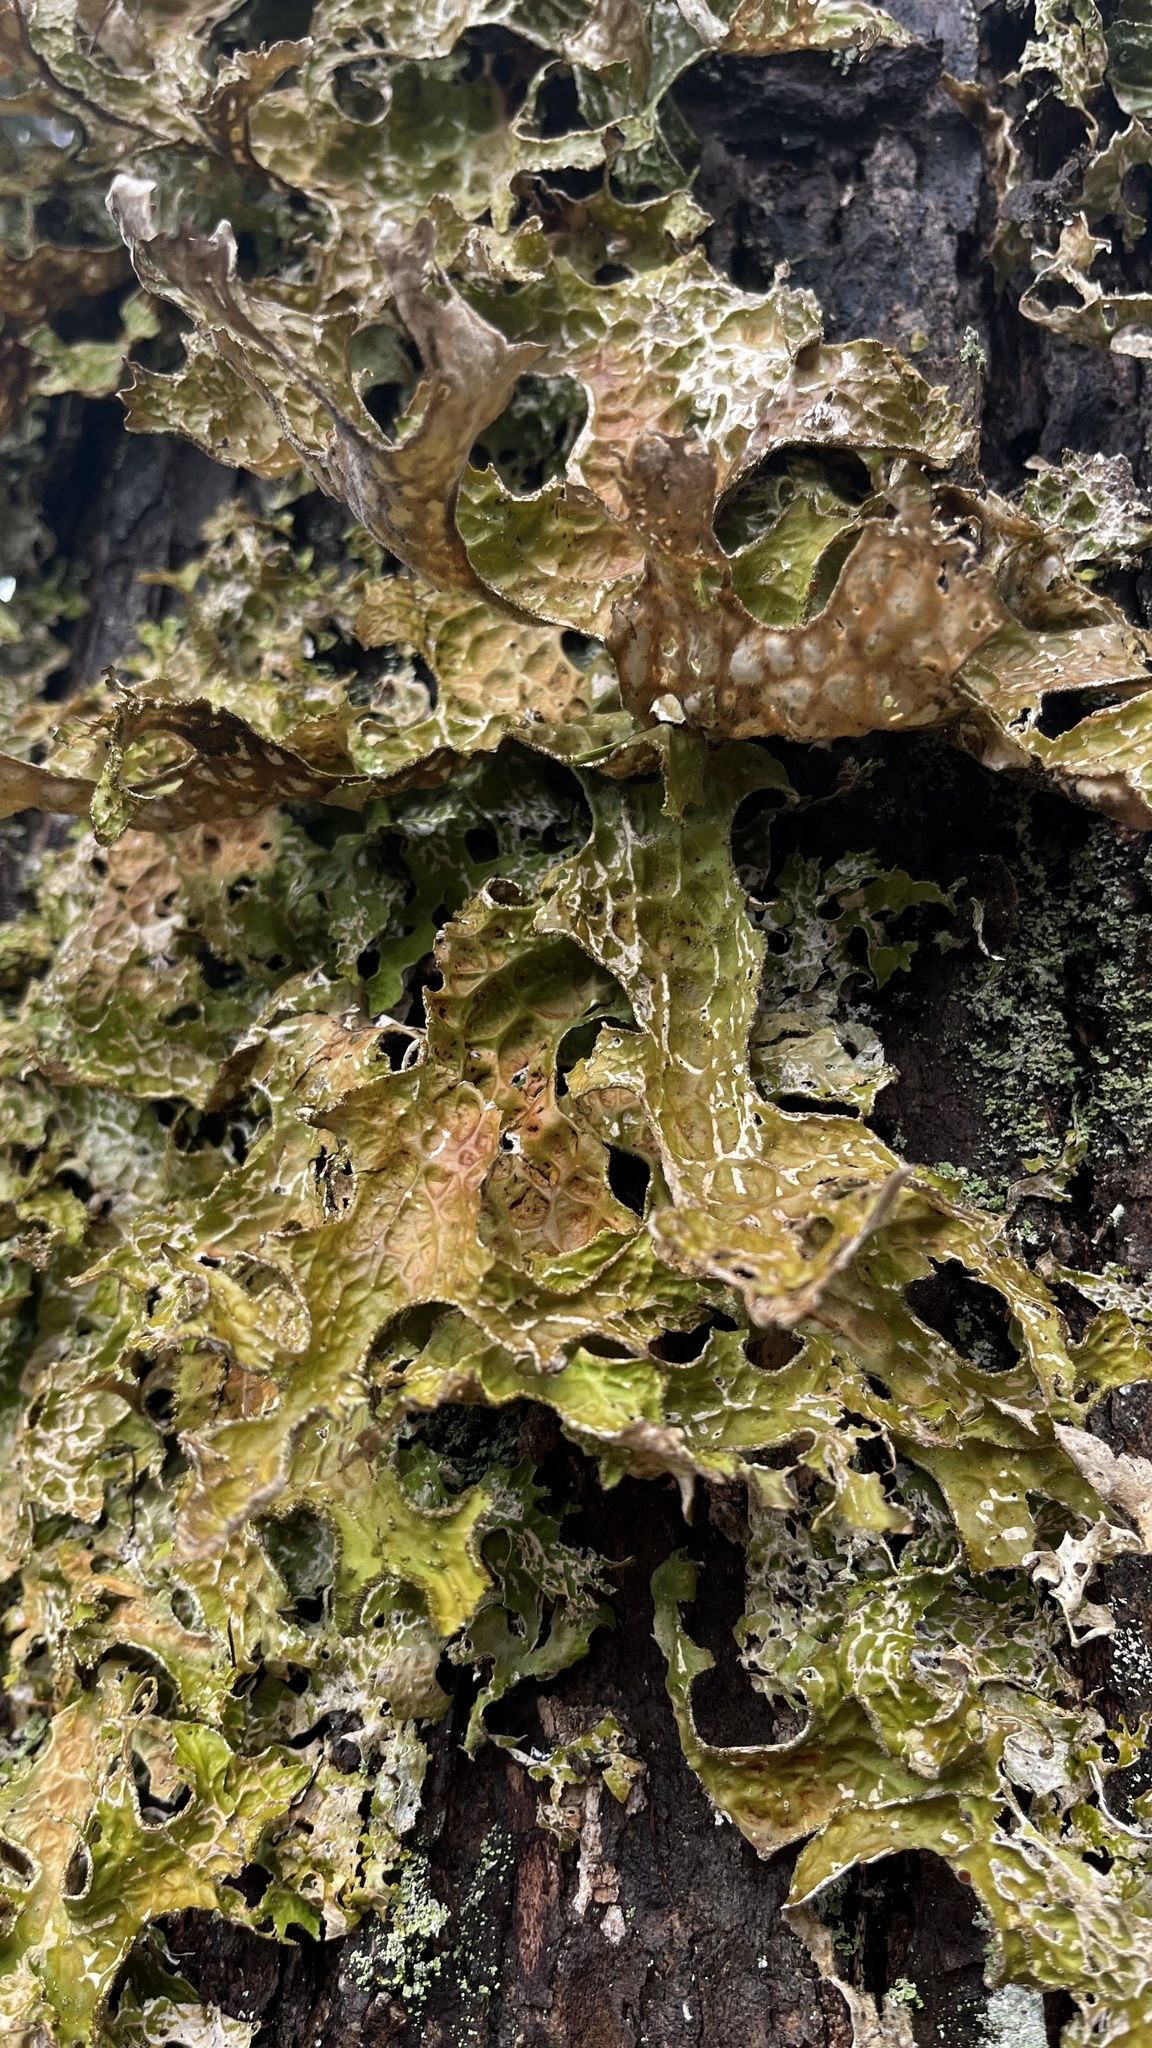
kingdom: Fungi
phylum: Ascomycota
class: Lecanoromycetes
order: Peltigerales
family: Lobariaceae
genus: Lobaria
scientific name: Lobaria pulmonaria
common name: Lungwort
